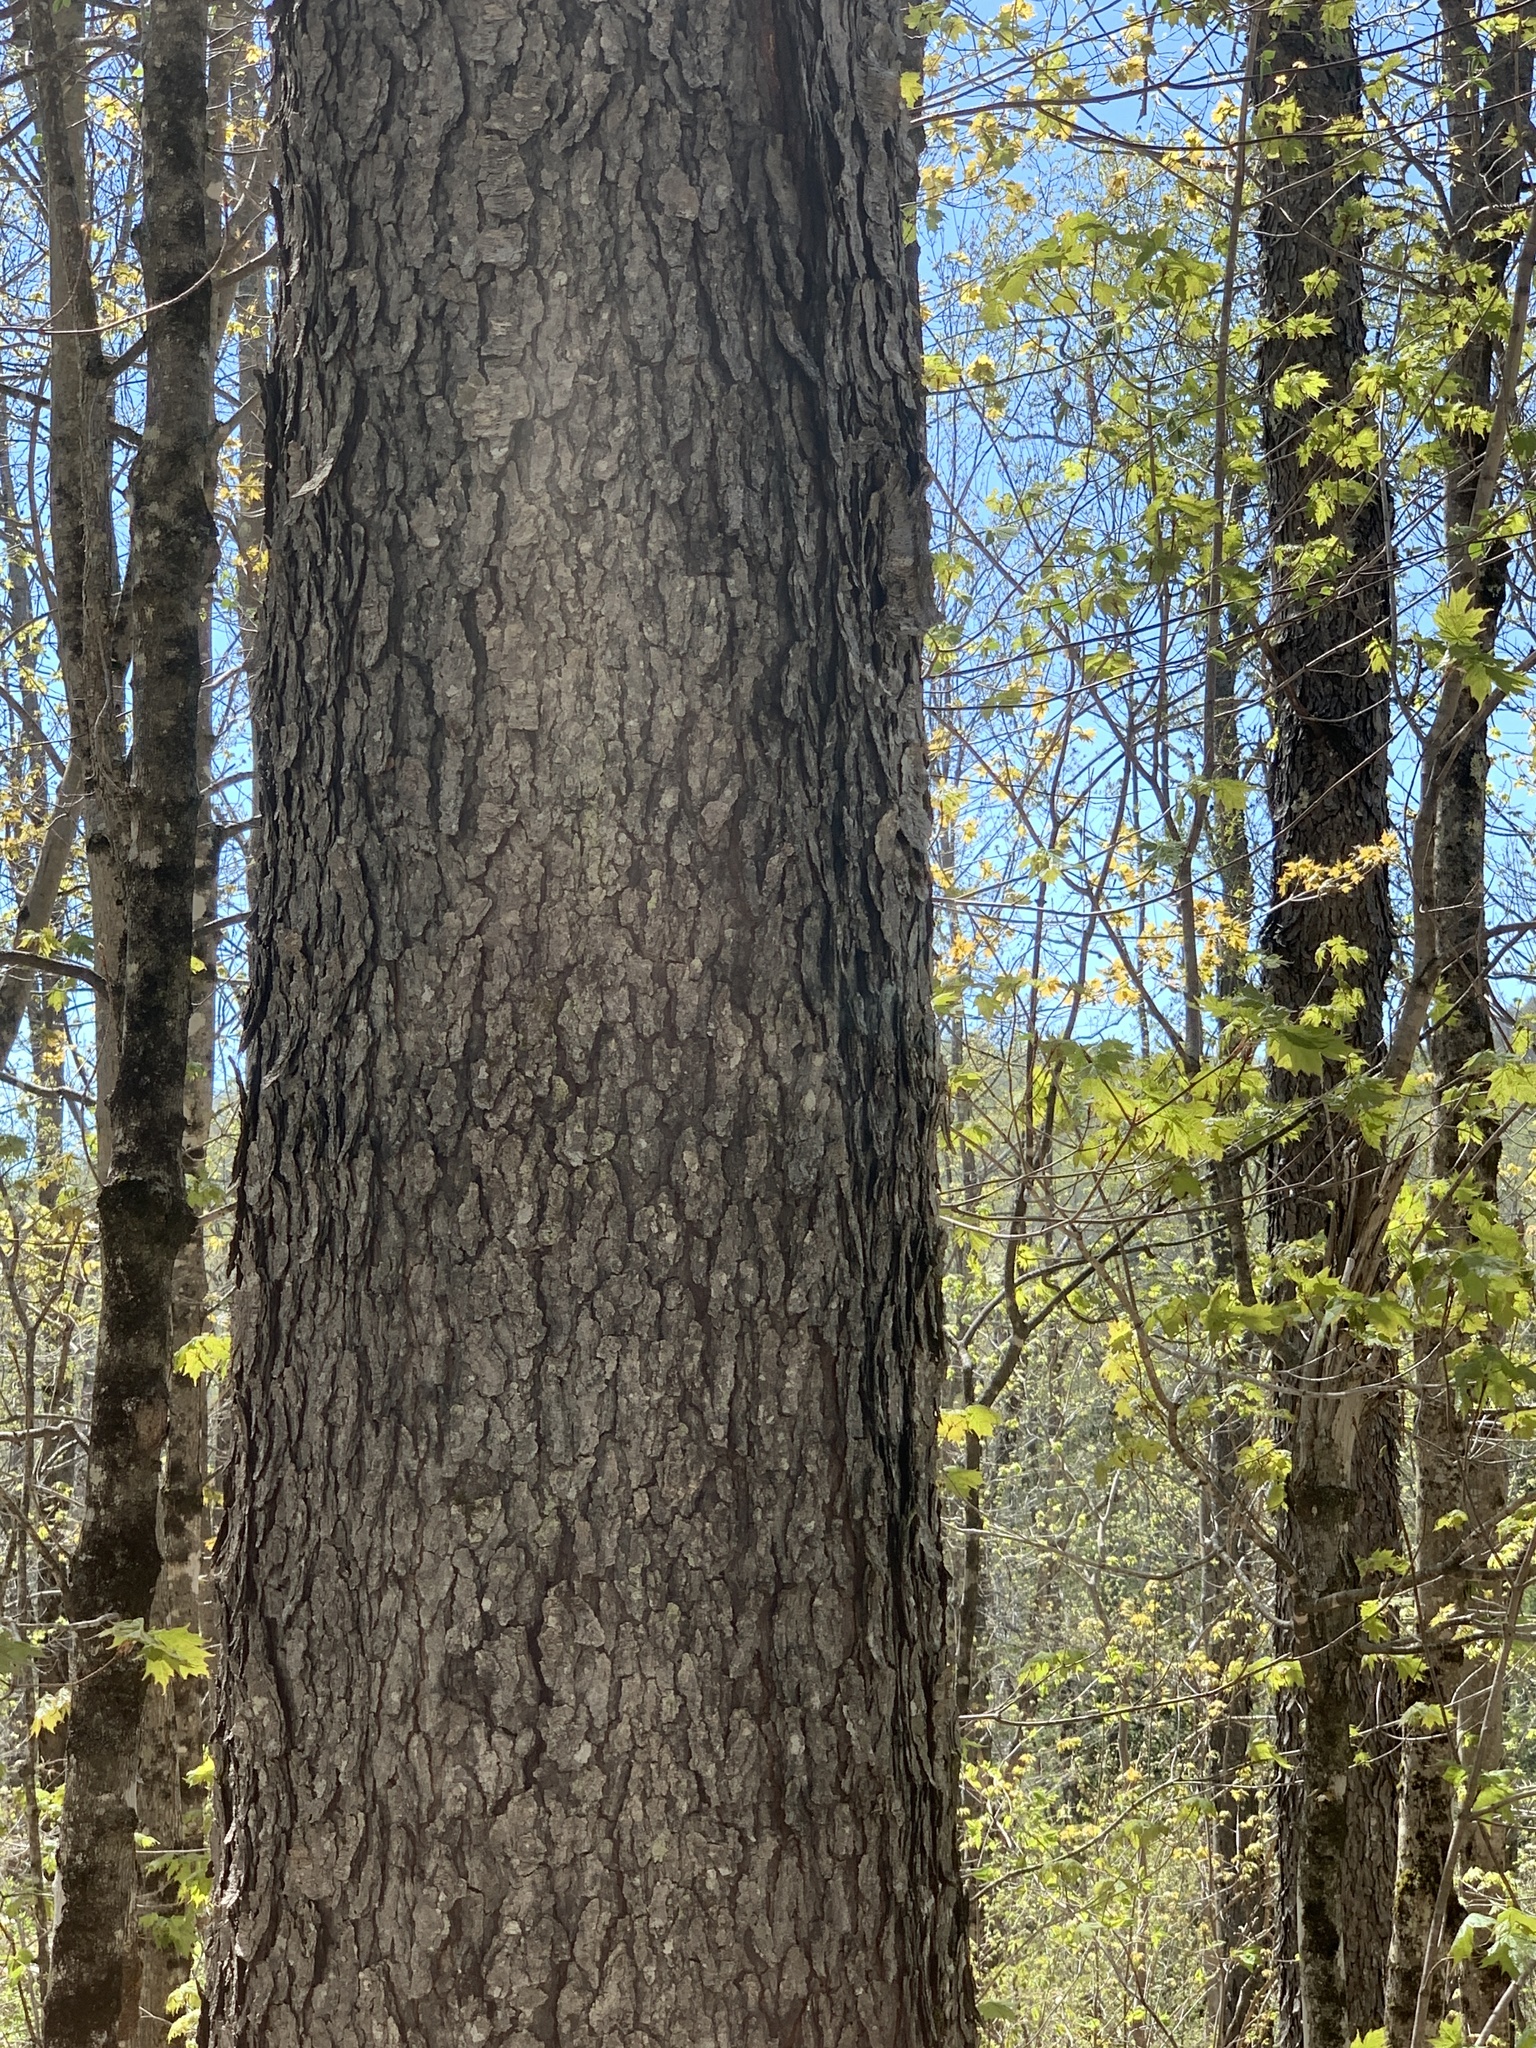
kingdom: Plantae
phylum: Tracheophyta
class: Magnoliopsida
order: Rosales
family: Rosaceae
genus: Prunus
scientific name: Prunus serotina
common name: Black cherry
